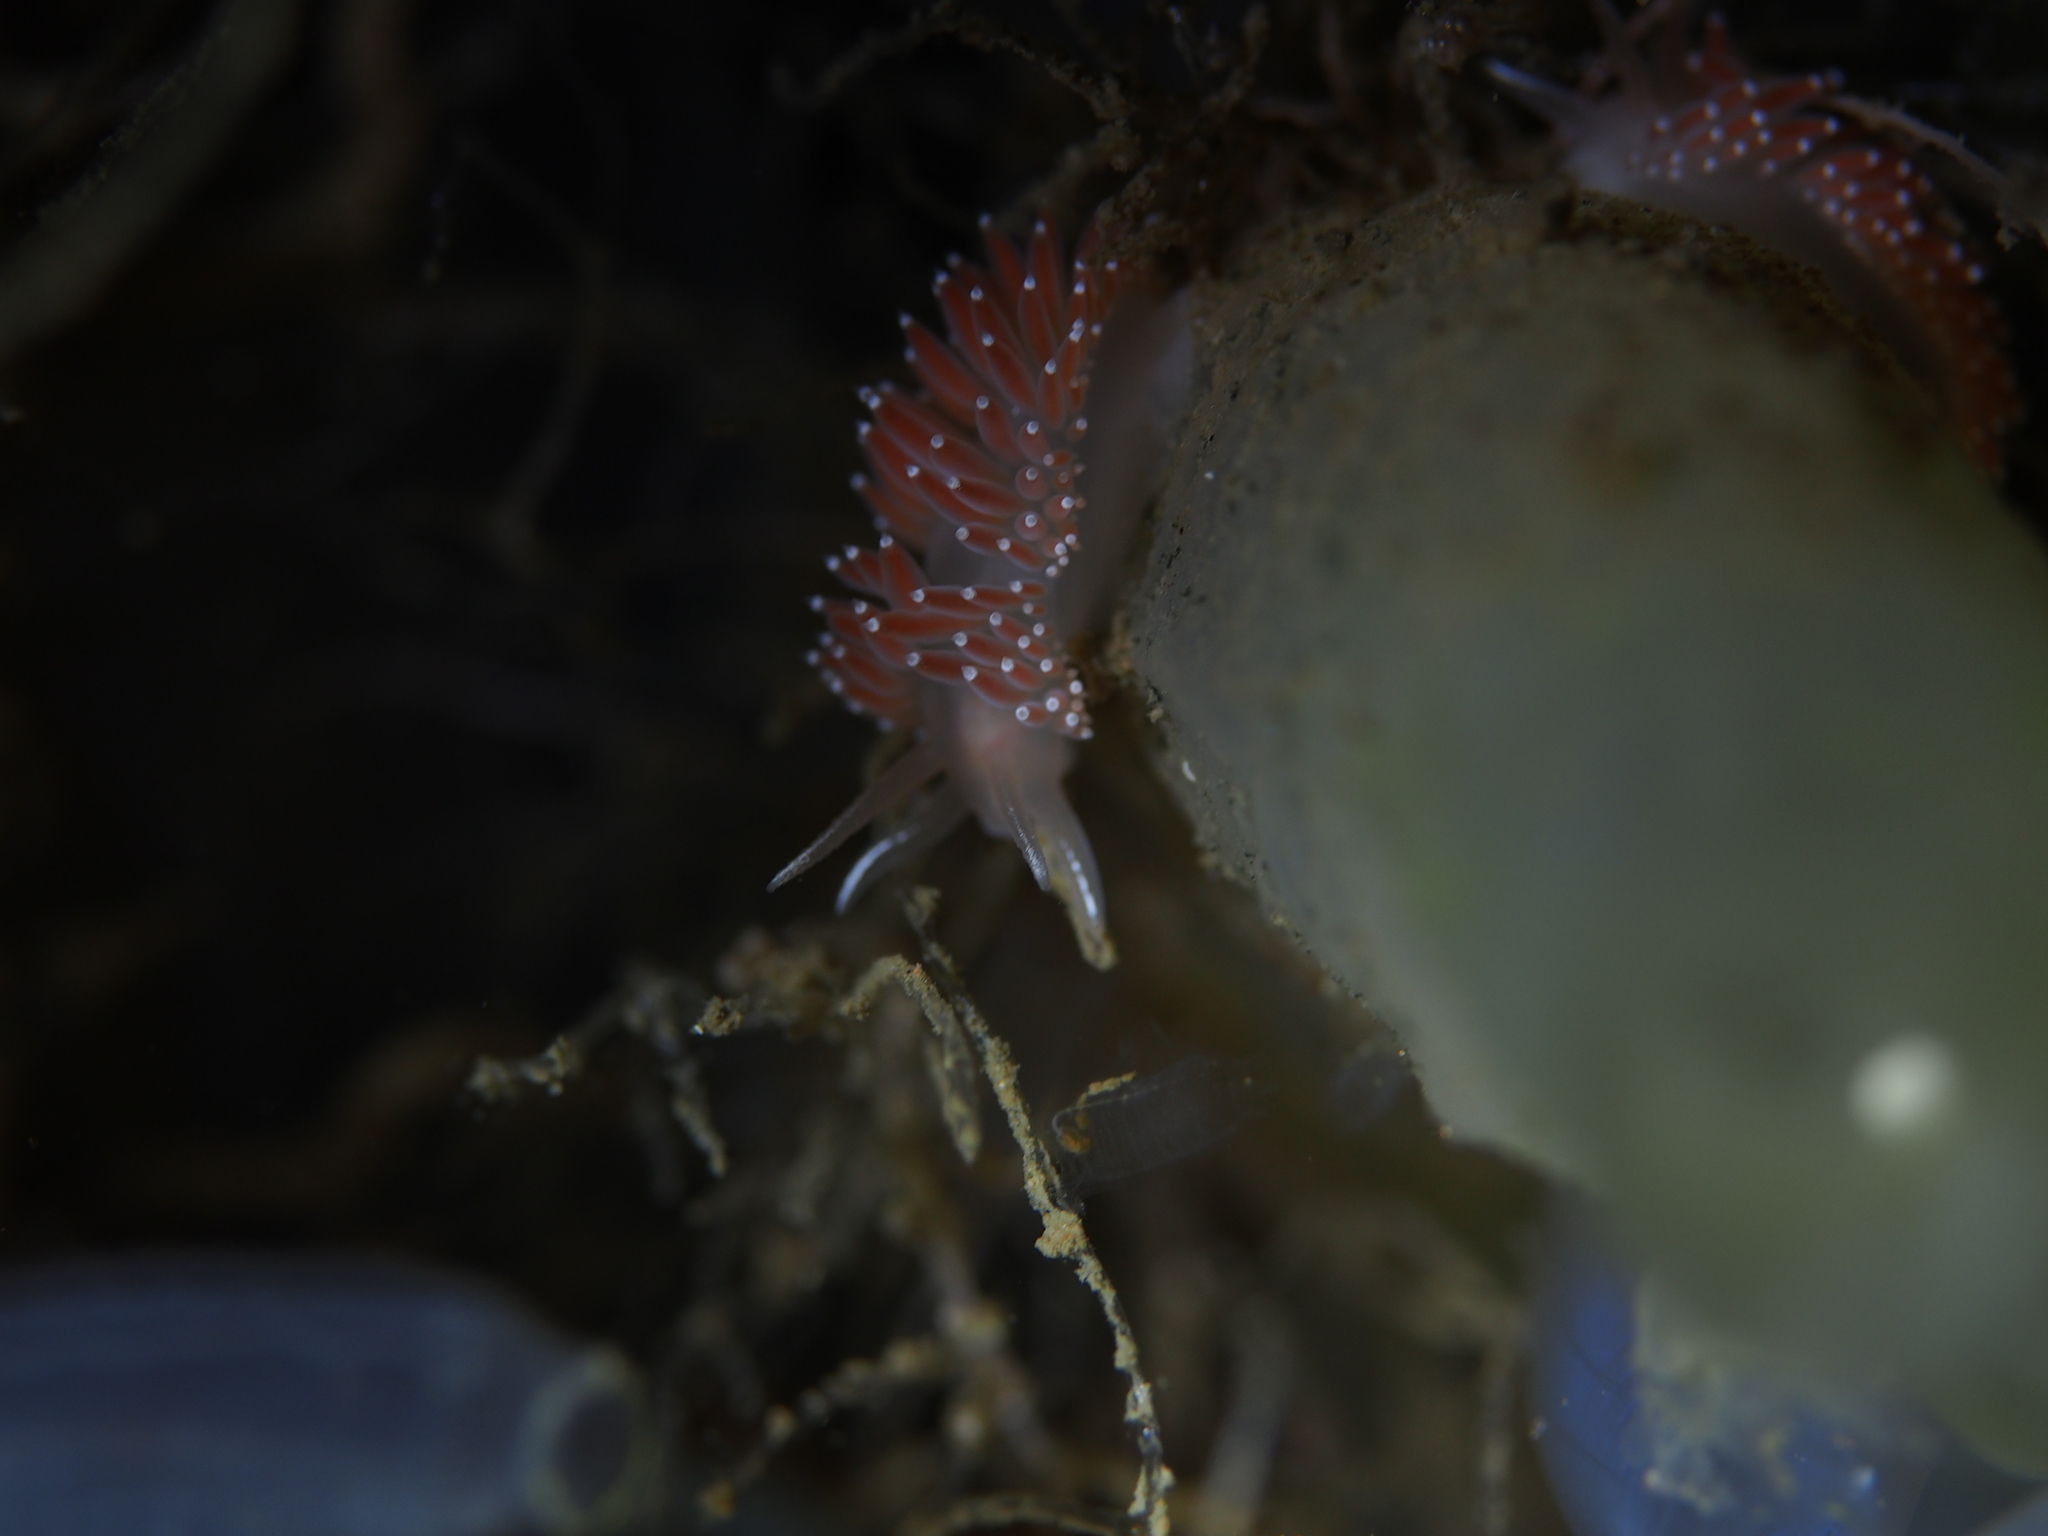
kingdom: Animalia
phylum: Mollusca
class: Gastropoda
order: Nudibranchia
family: Coryphellidae
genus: Coryphella
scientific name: Coryphella verrucosa
